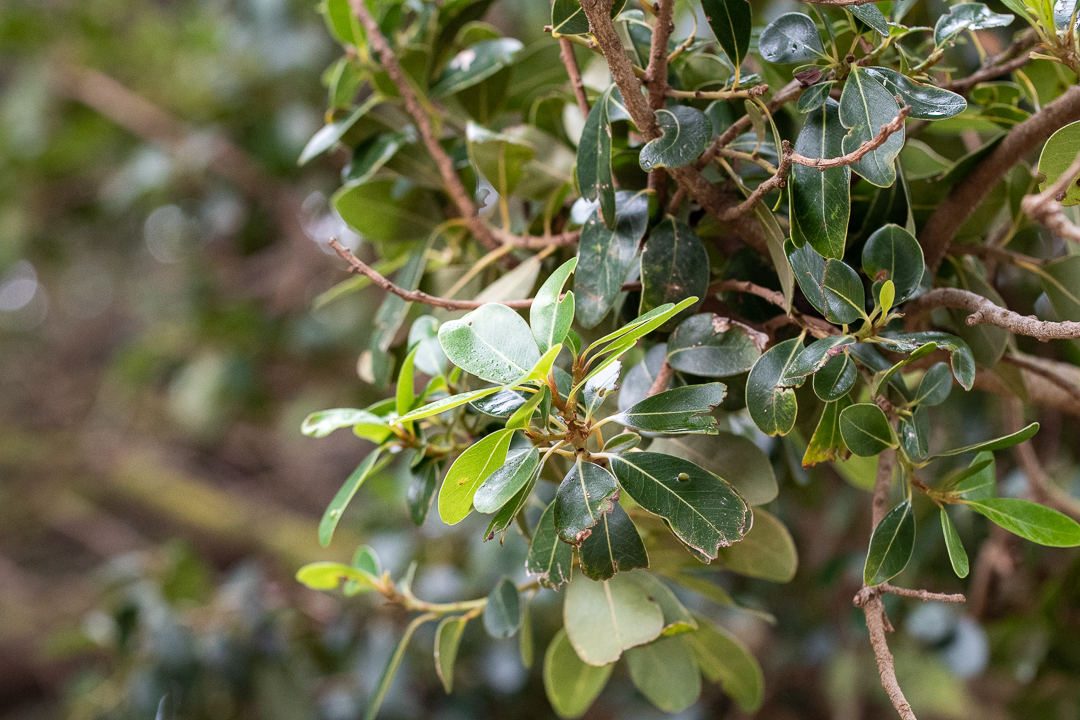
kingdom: Plantae
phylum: Tracheophyta
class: Magnoliopsida
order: Ericales
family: Sapotaceae
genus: Sideroxylon
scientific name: Sideroxylon inerme
